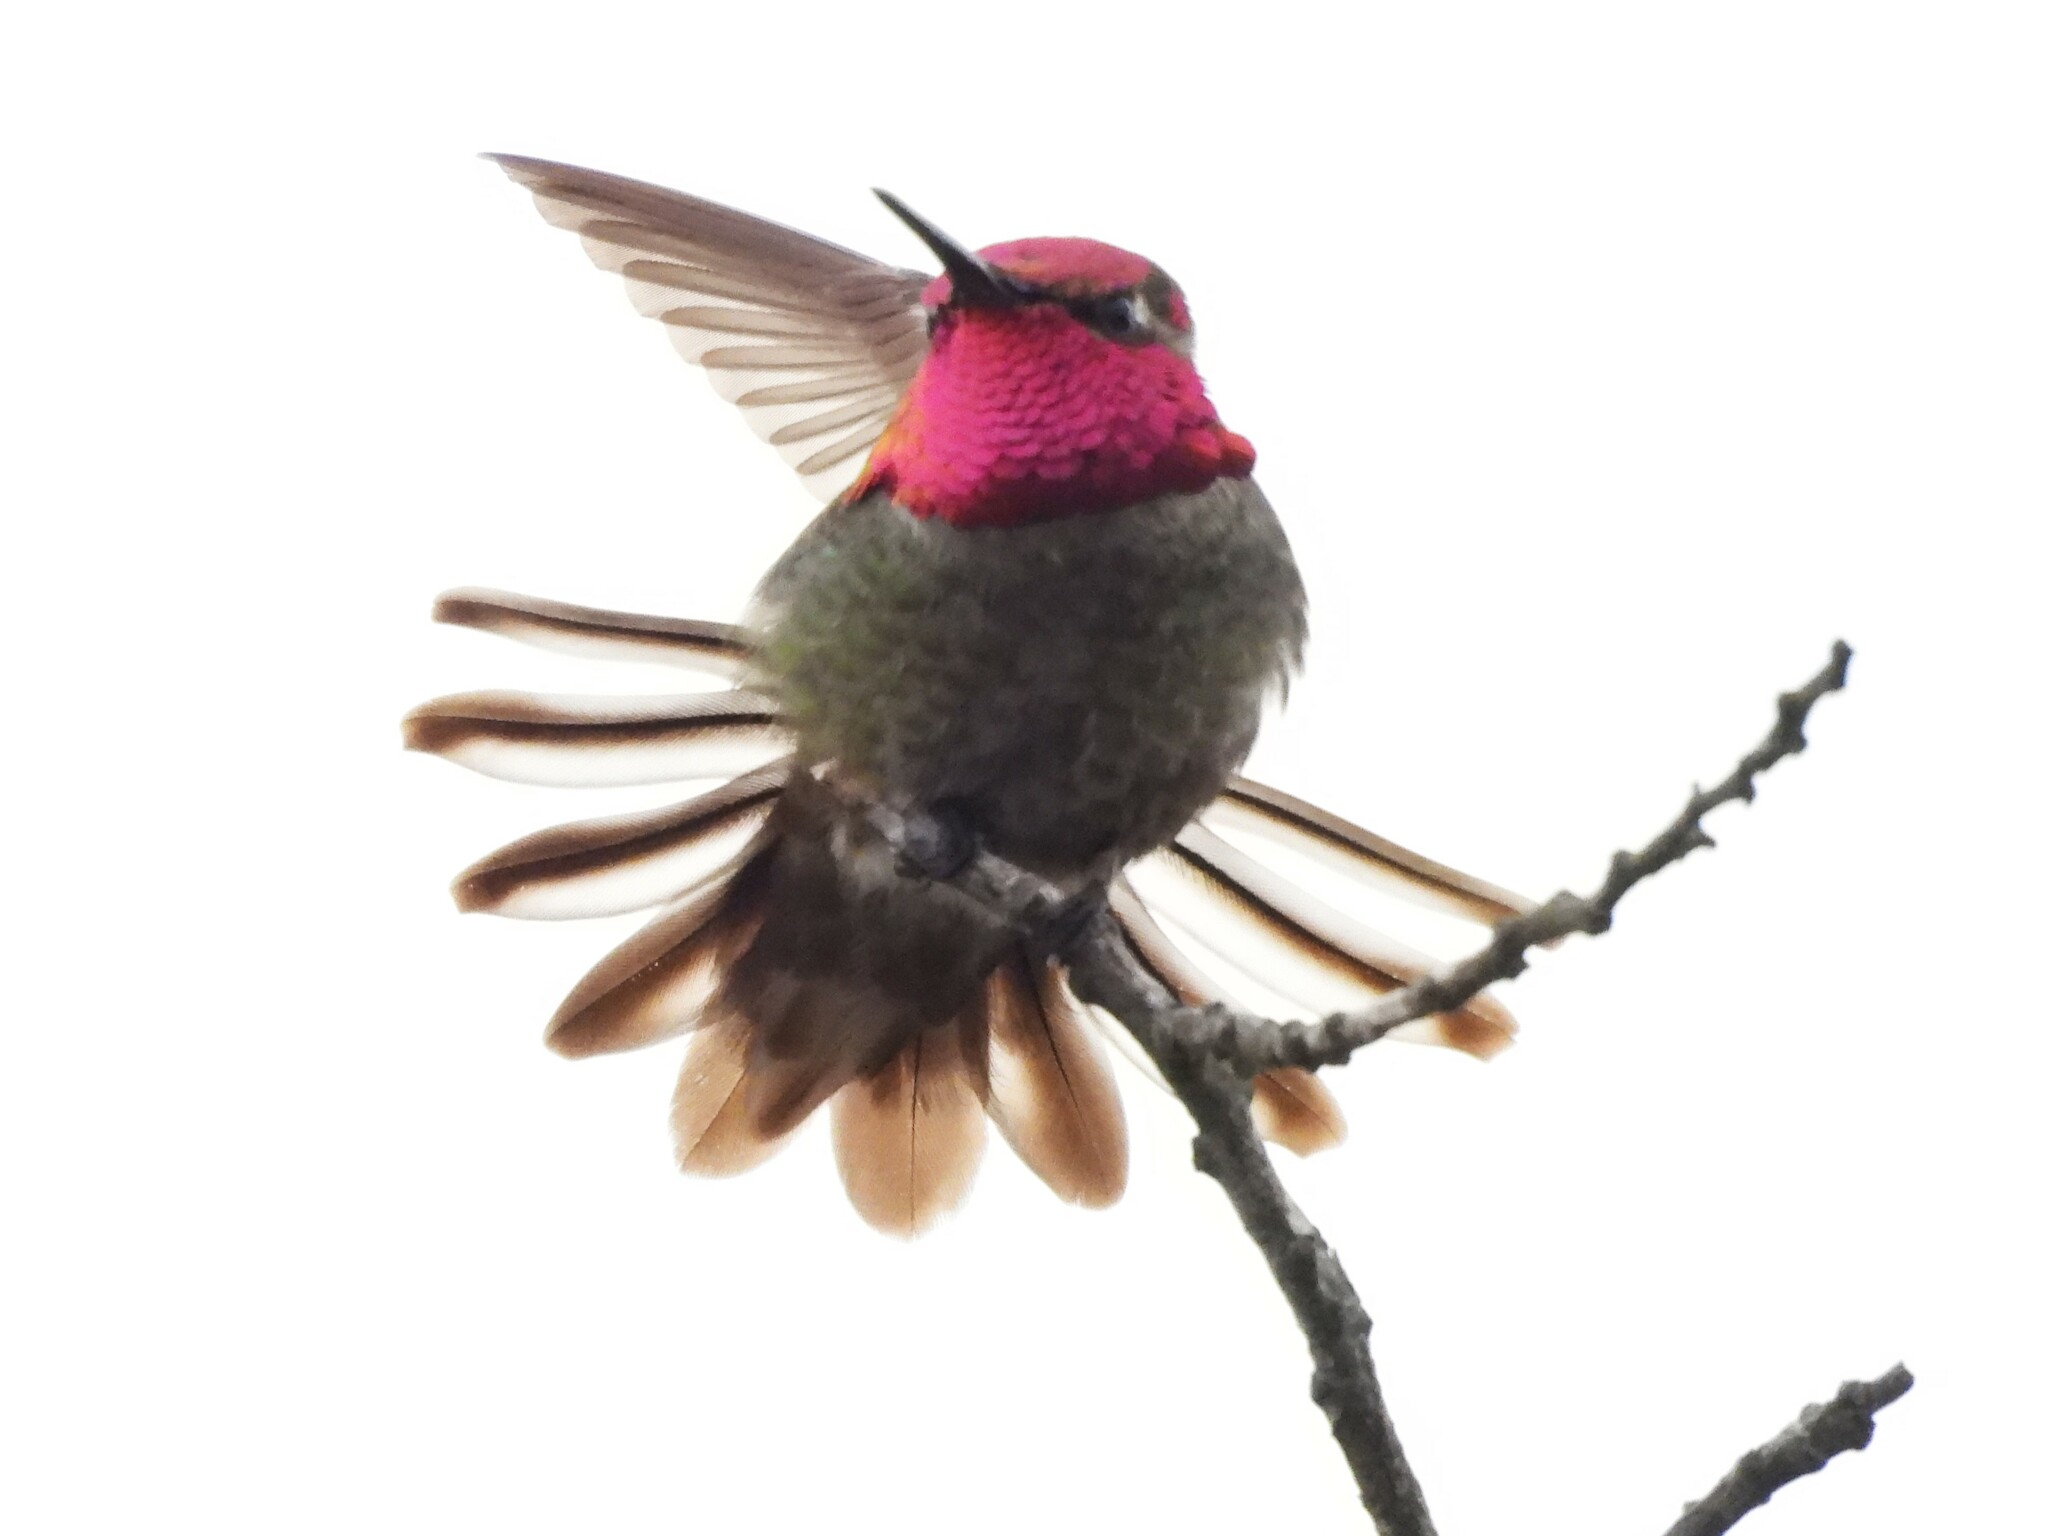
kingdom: Animalia
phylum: Chordata
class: Aves
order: Apodiformes
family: Trochilidae
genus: Calypte
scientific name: Calypte anna
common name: Anna's hummingbird
